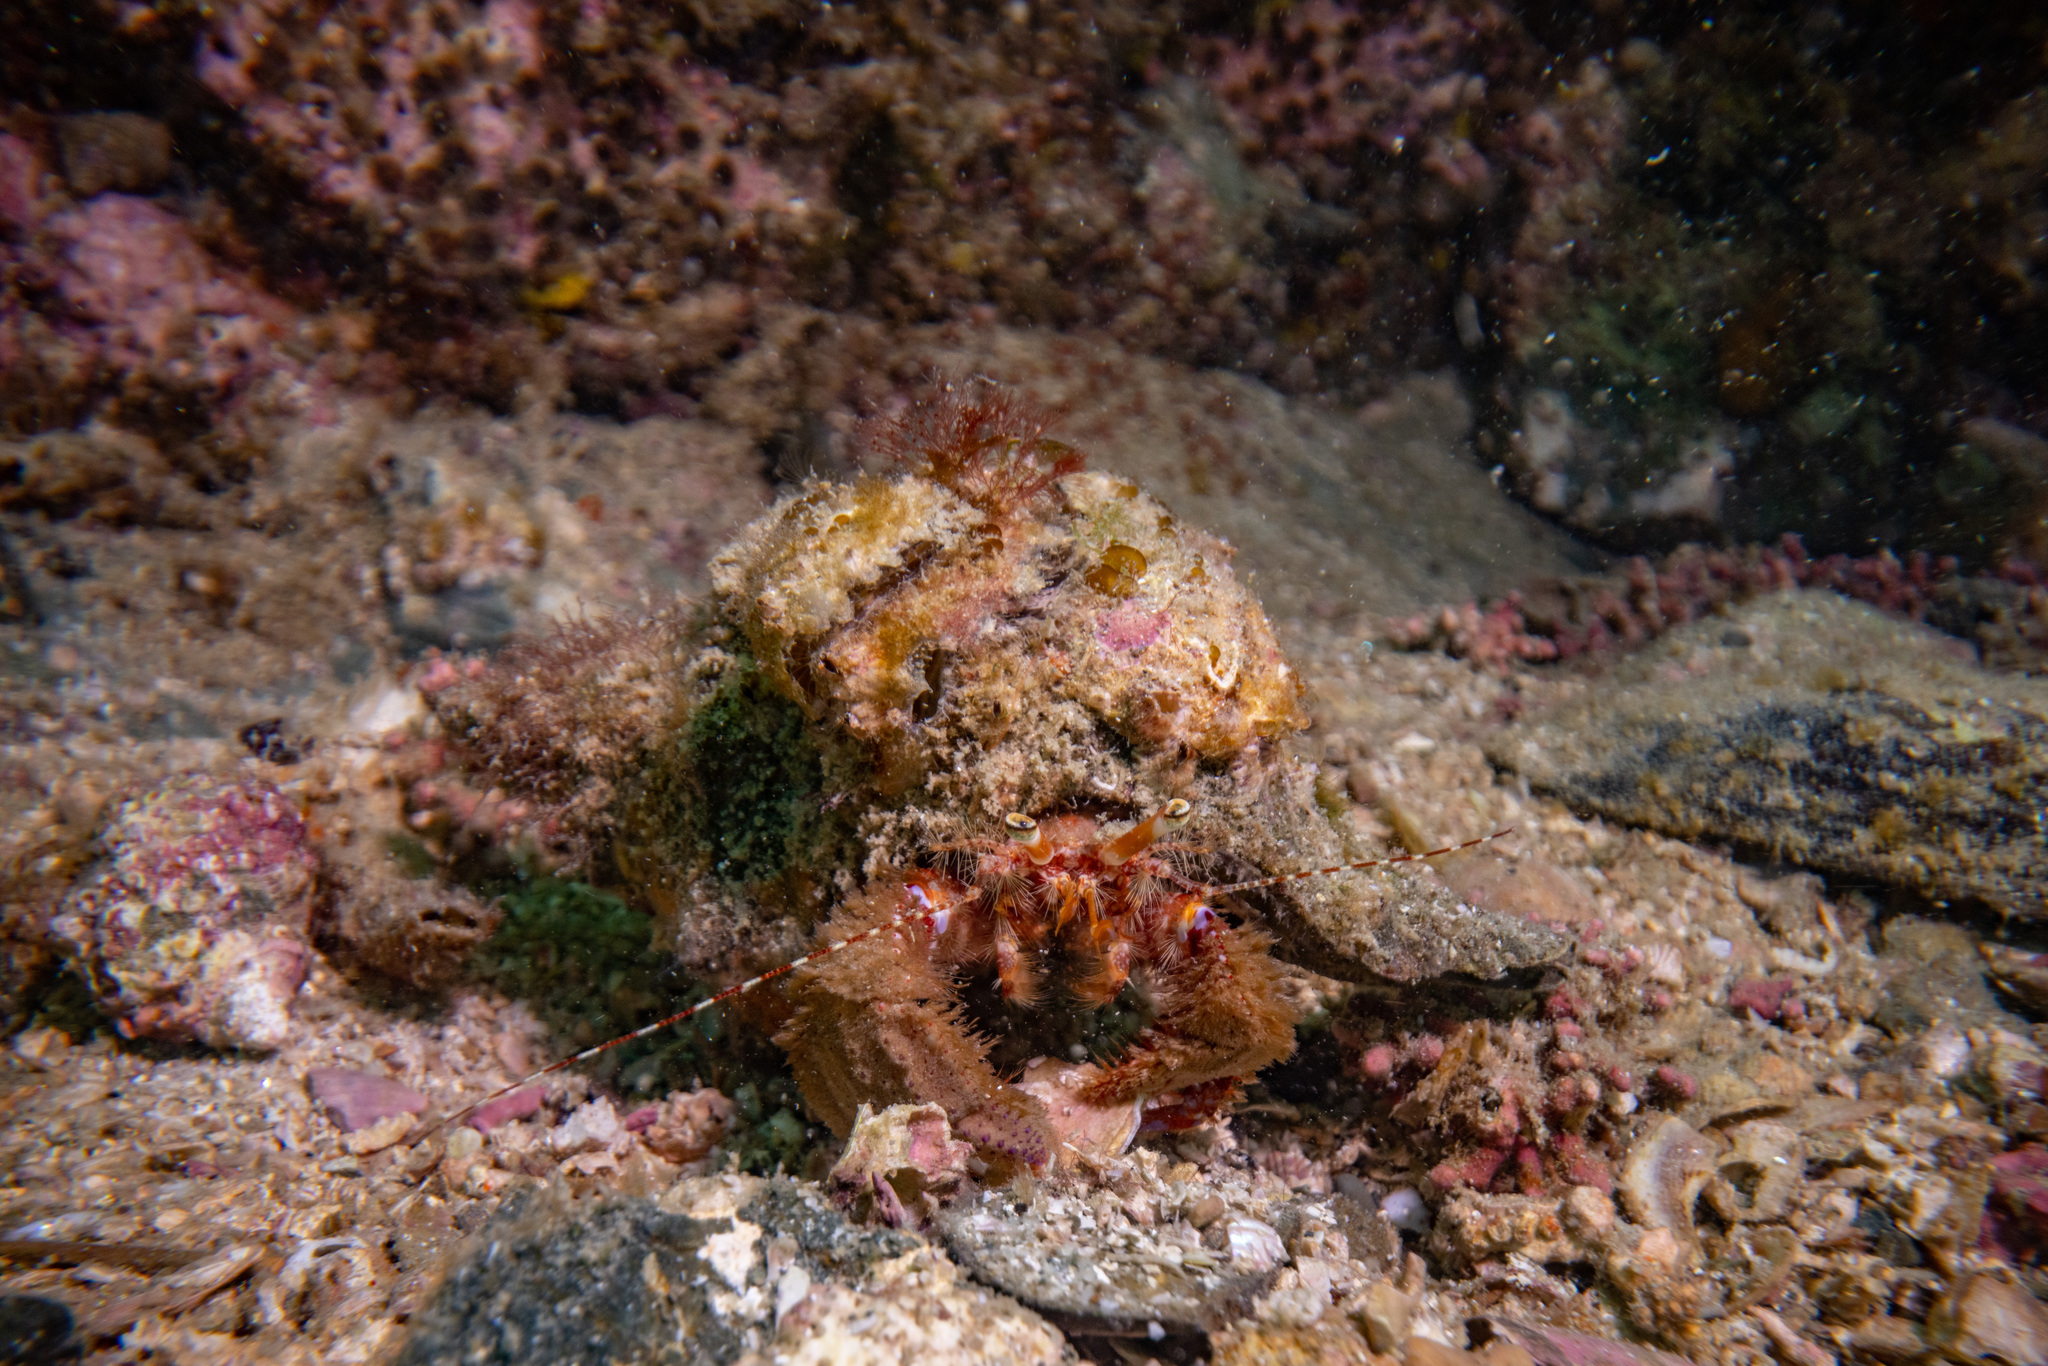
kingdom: Animalia
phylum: Arthropoda
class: Malacostraca
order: Decapoda
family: Paguridae
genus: Diacanthurus
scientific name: Diacanthurus spinulimanus
